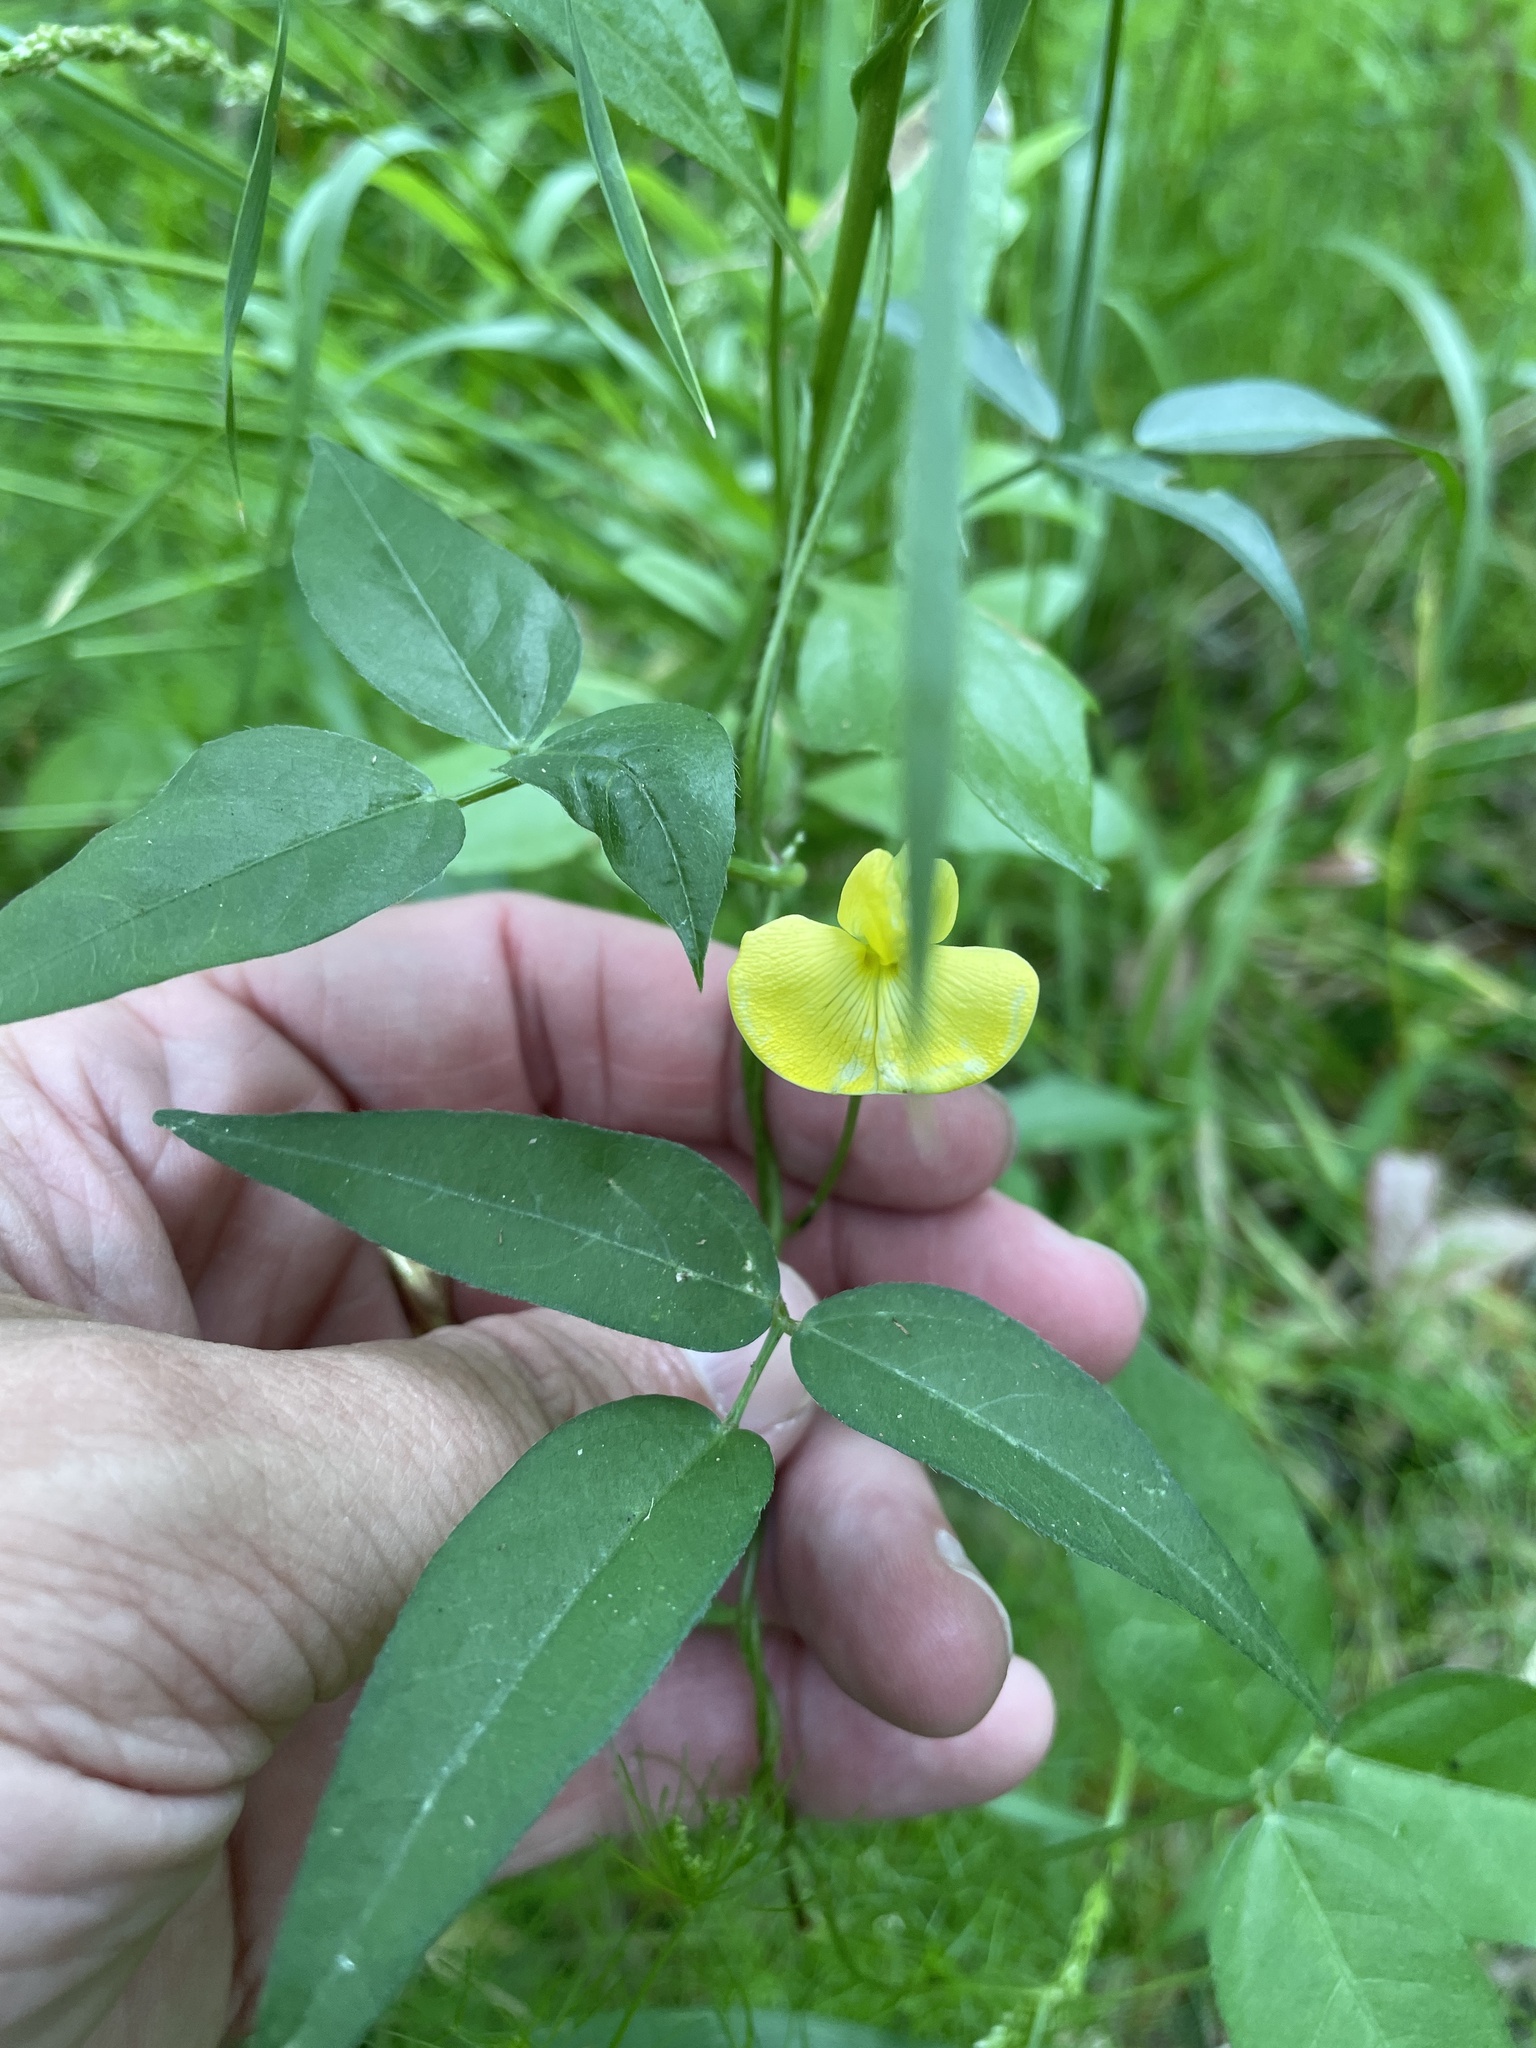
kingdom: Plantae
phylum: Tracheophyta
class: Magnoliopsida
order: Fabales
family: Fabaceae
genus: Vigna
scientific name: Vigna luteola
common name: Hairypod cowpea
